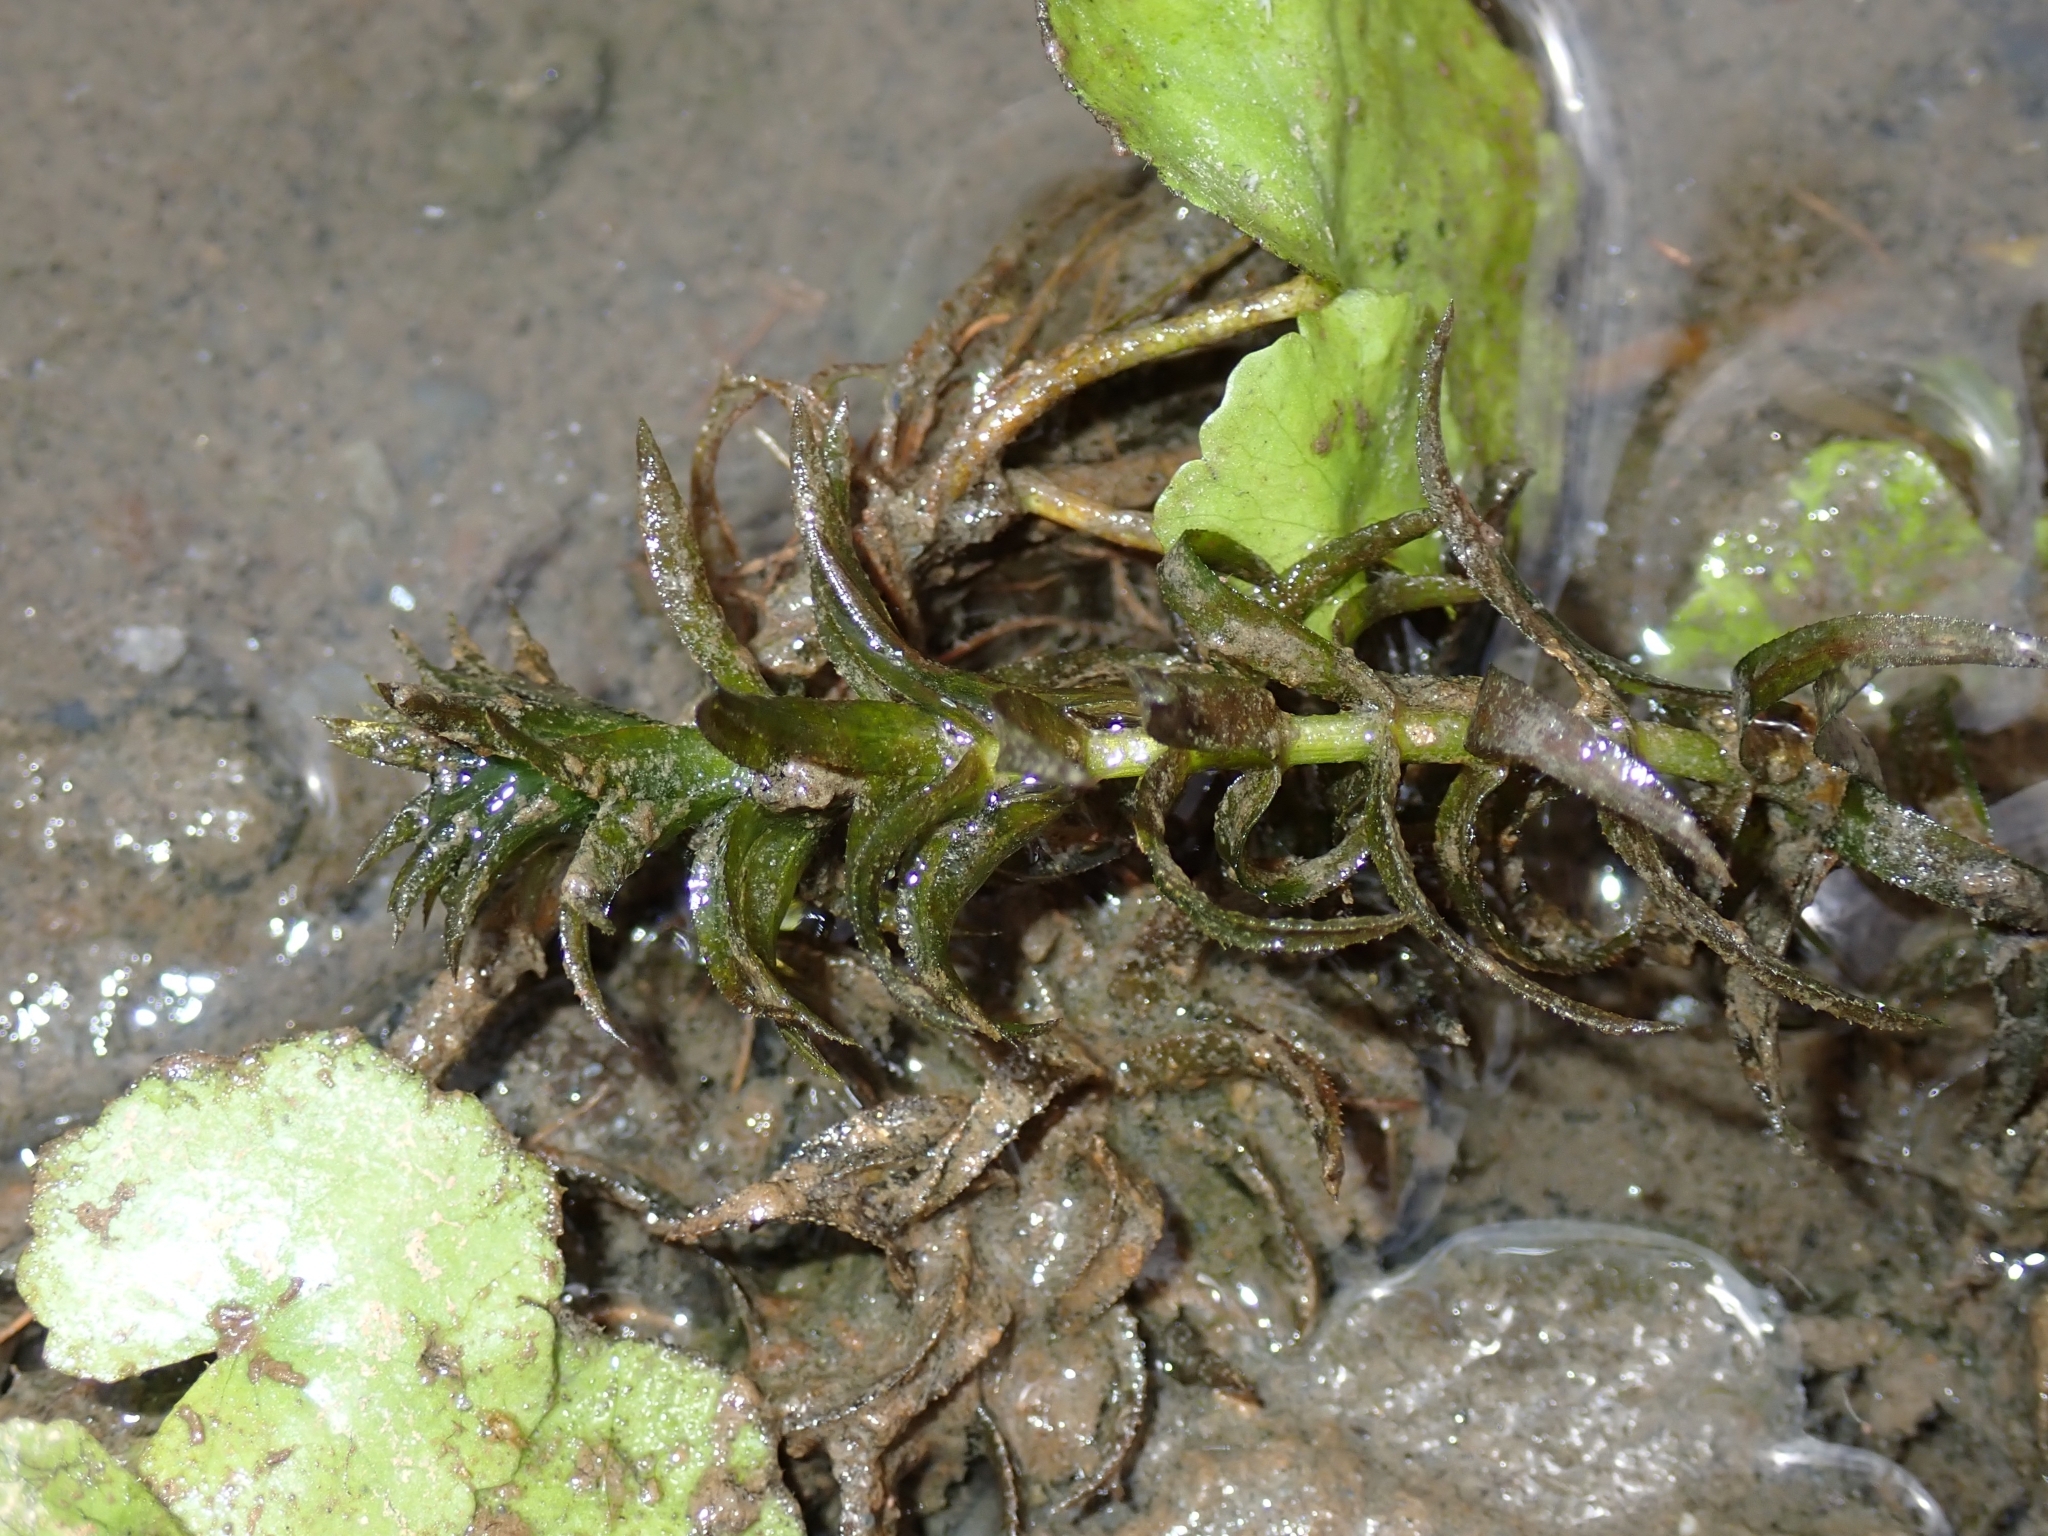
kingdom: Plantae
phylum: Tracheophyta
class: Liliopsida
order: Alismatales
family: Hydrocharitaceae
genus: Hydrilla
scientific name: Hydrilla verticillata
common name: Florida-elodea
